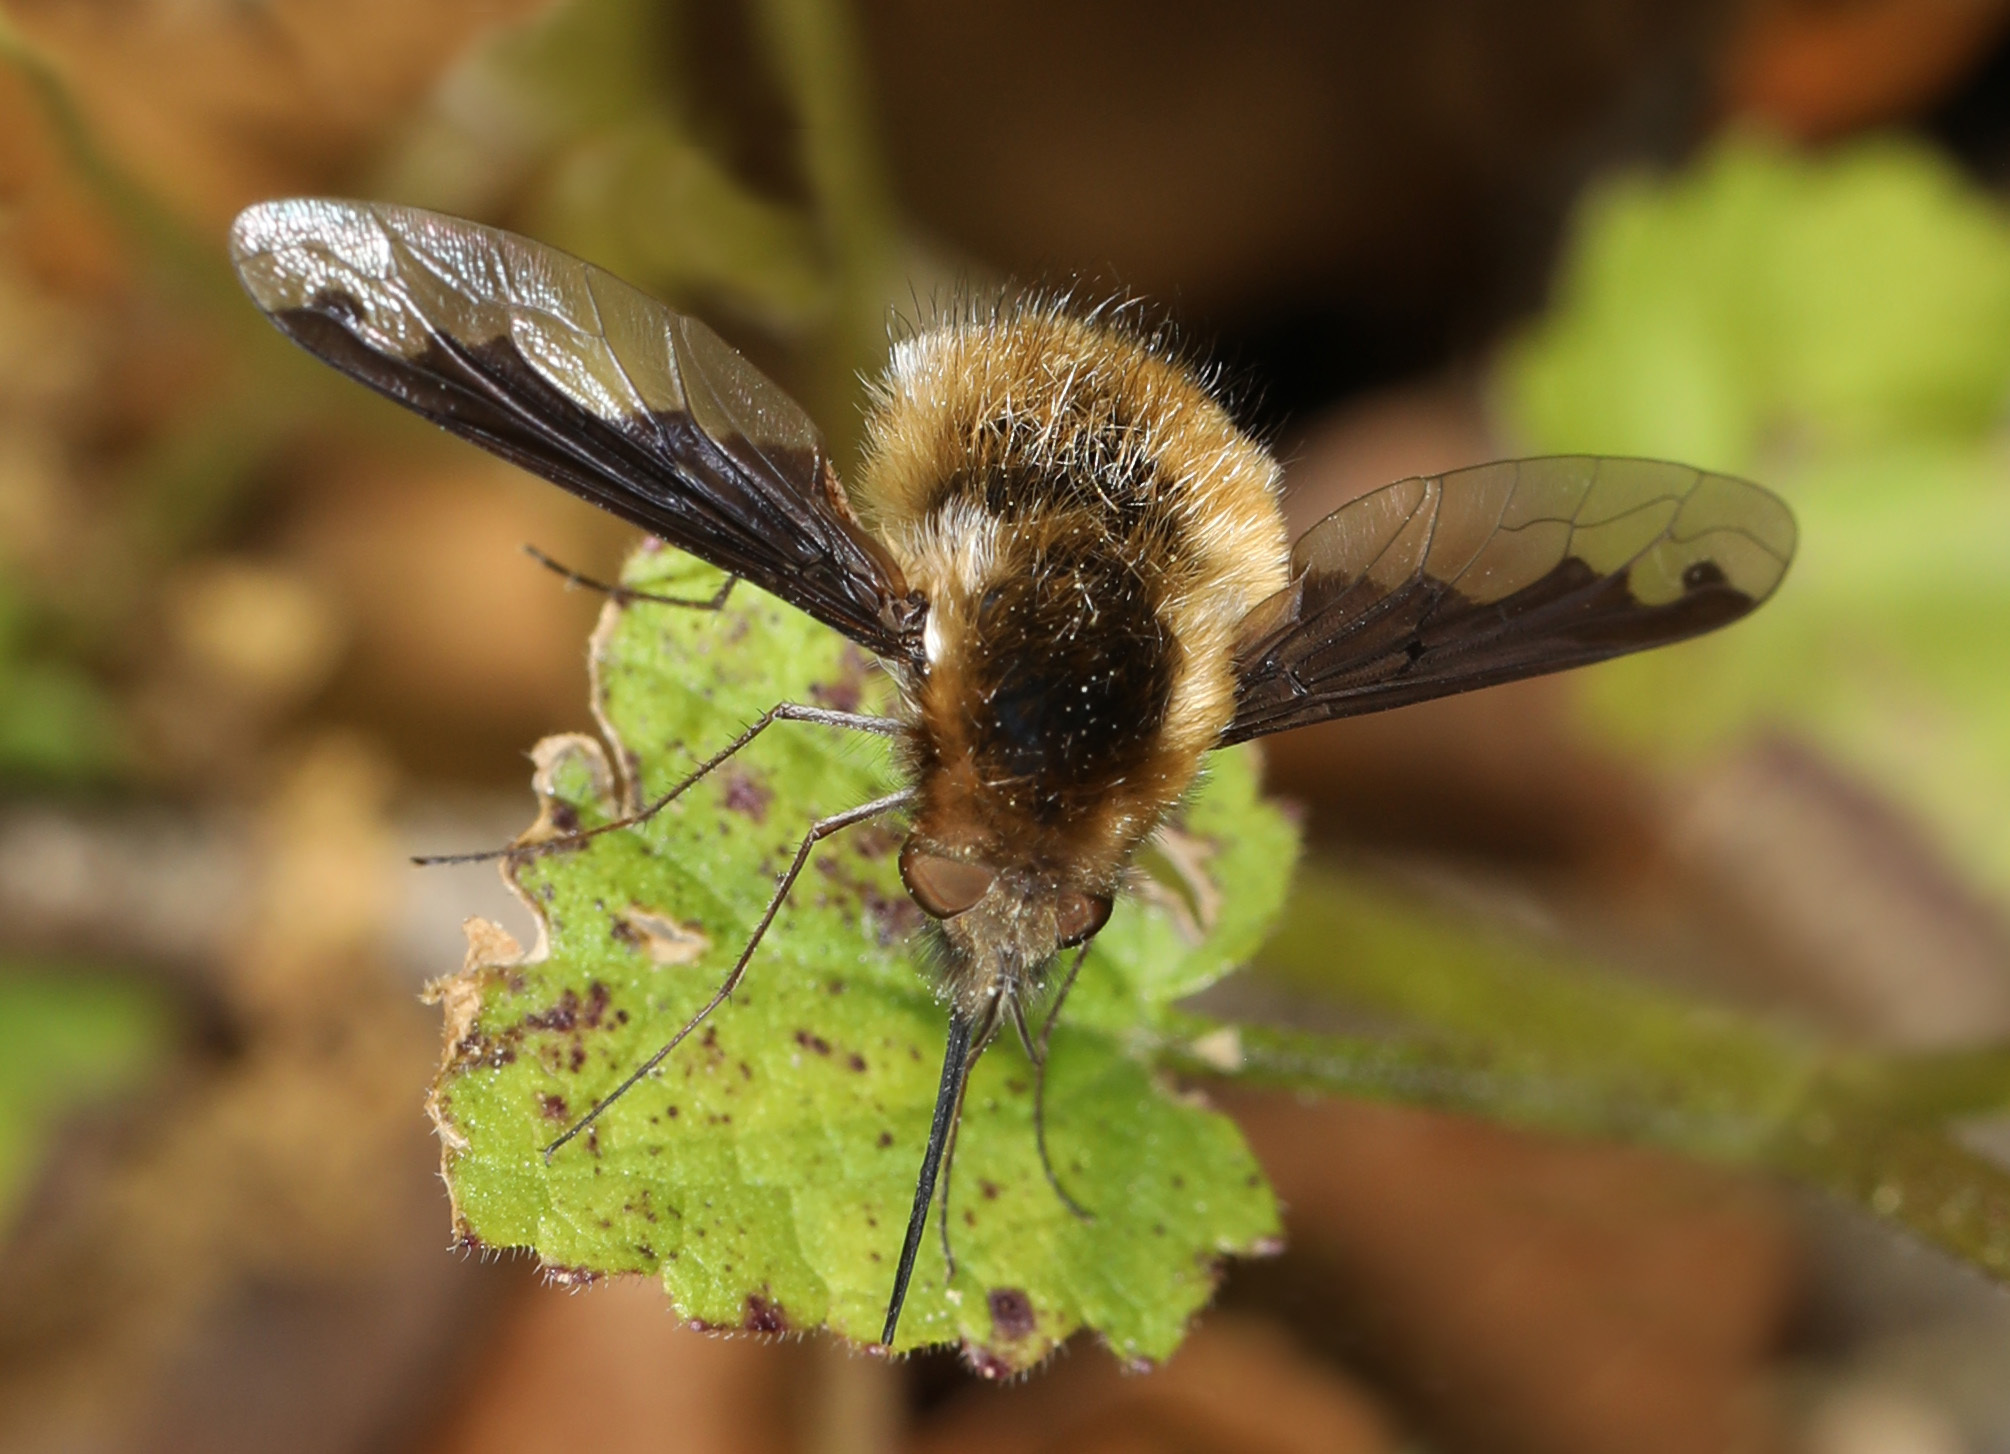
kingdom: Animalia
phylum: Arthropoda
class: Insecta
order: Diptera
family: Bombyliidae
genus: Bombylius
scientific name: Bombylius major
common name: Bee fly
